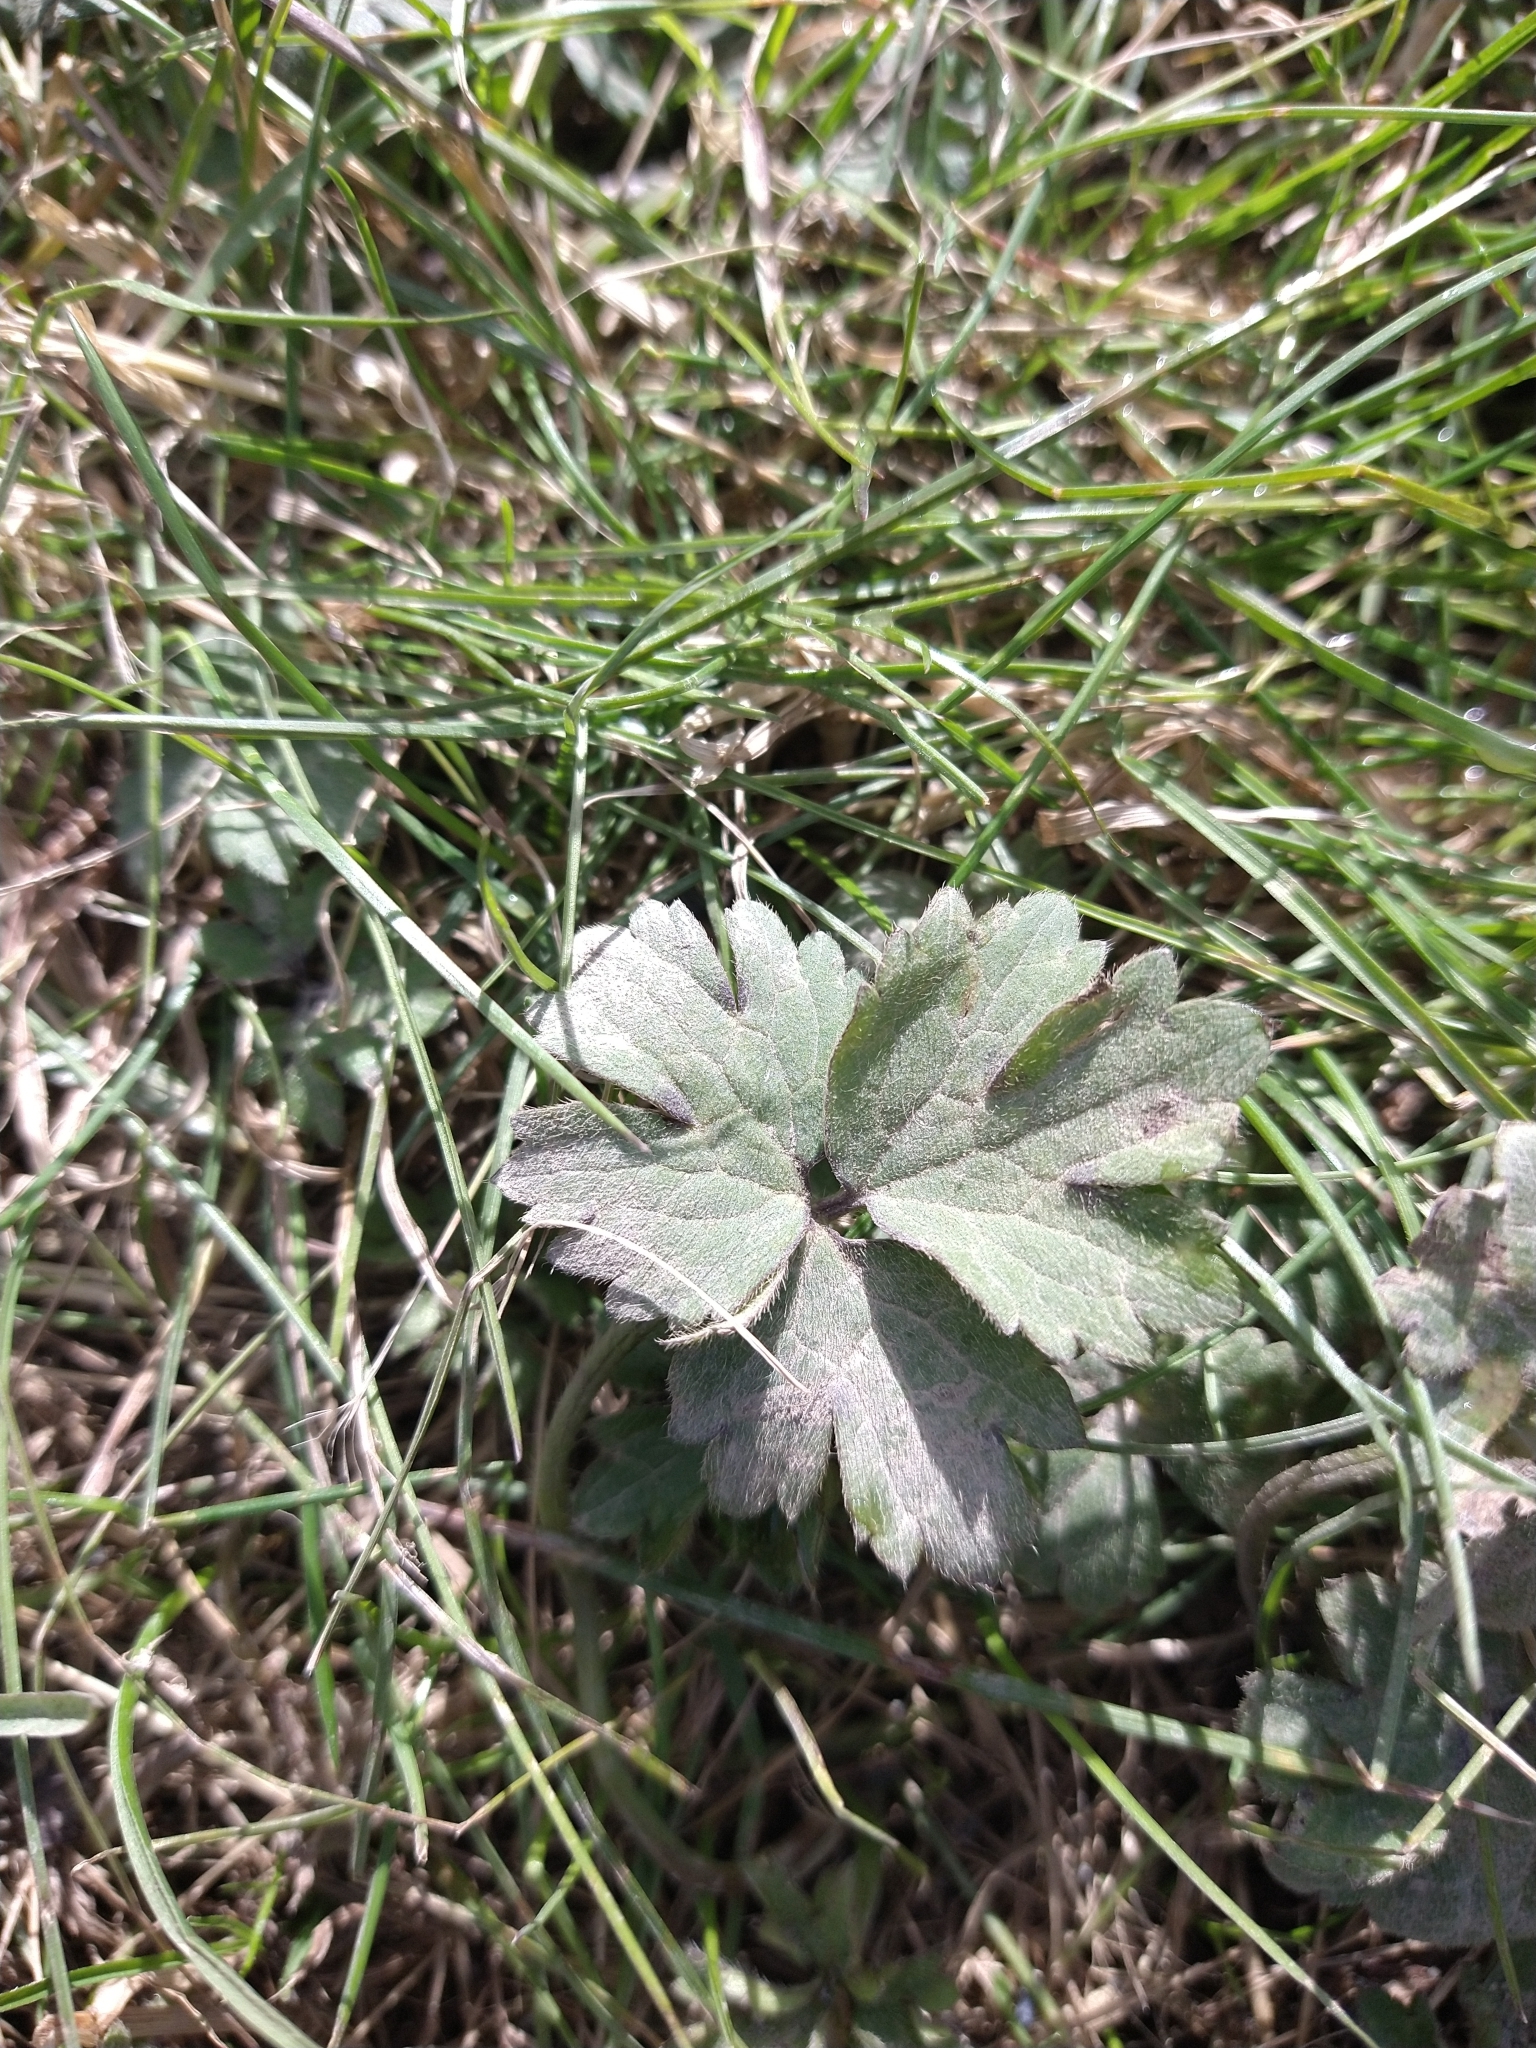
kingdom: Plantae
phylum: Tracheophyta
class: Magnoliopsida
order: Ranunculales
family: Ranunculaceae
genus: Ranunculus
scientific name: Ranunculus repens
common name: Creeping buttercup
